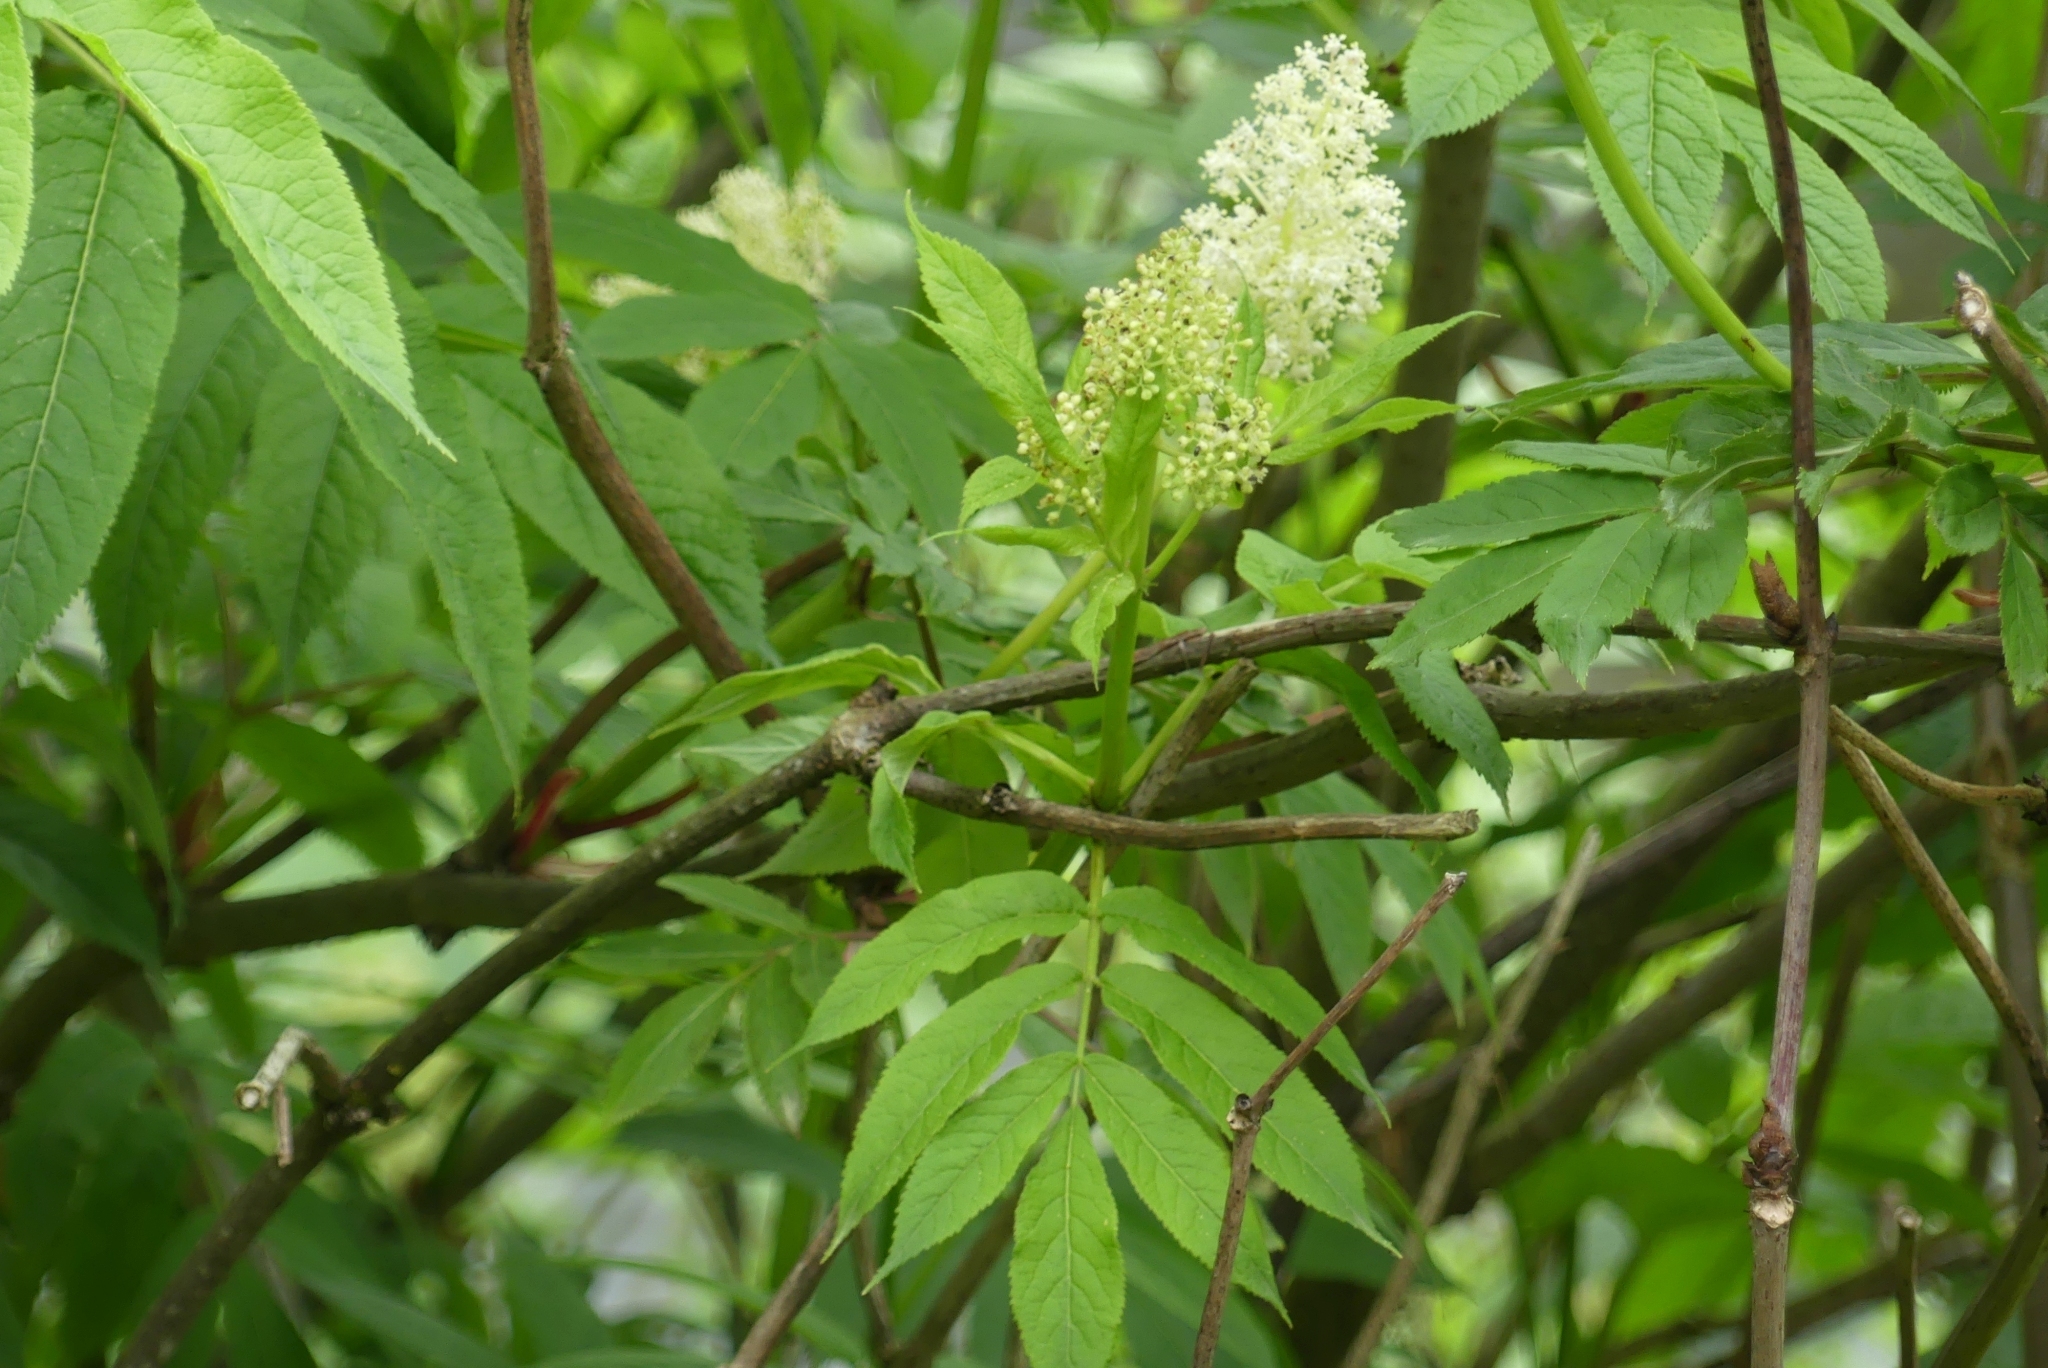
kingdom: Plantae
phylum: Tracheophyta
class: Magnoliopsida
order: Dipsacales
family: Viburnaceae
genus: Sambucus
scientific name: Sambucus racemosa
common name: Red-berried elder
